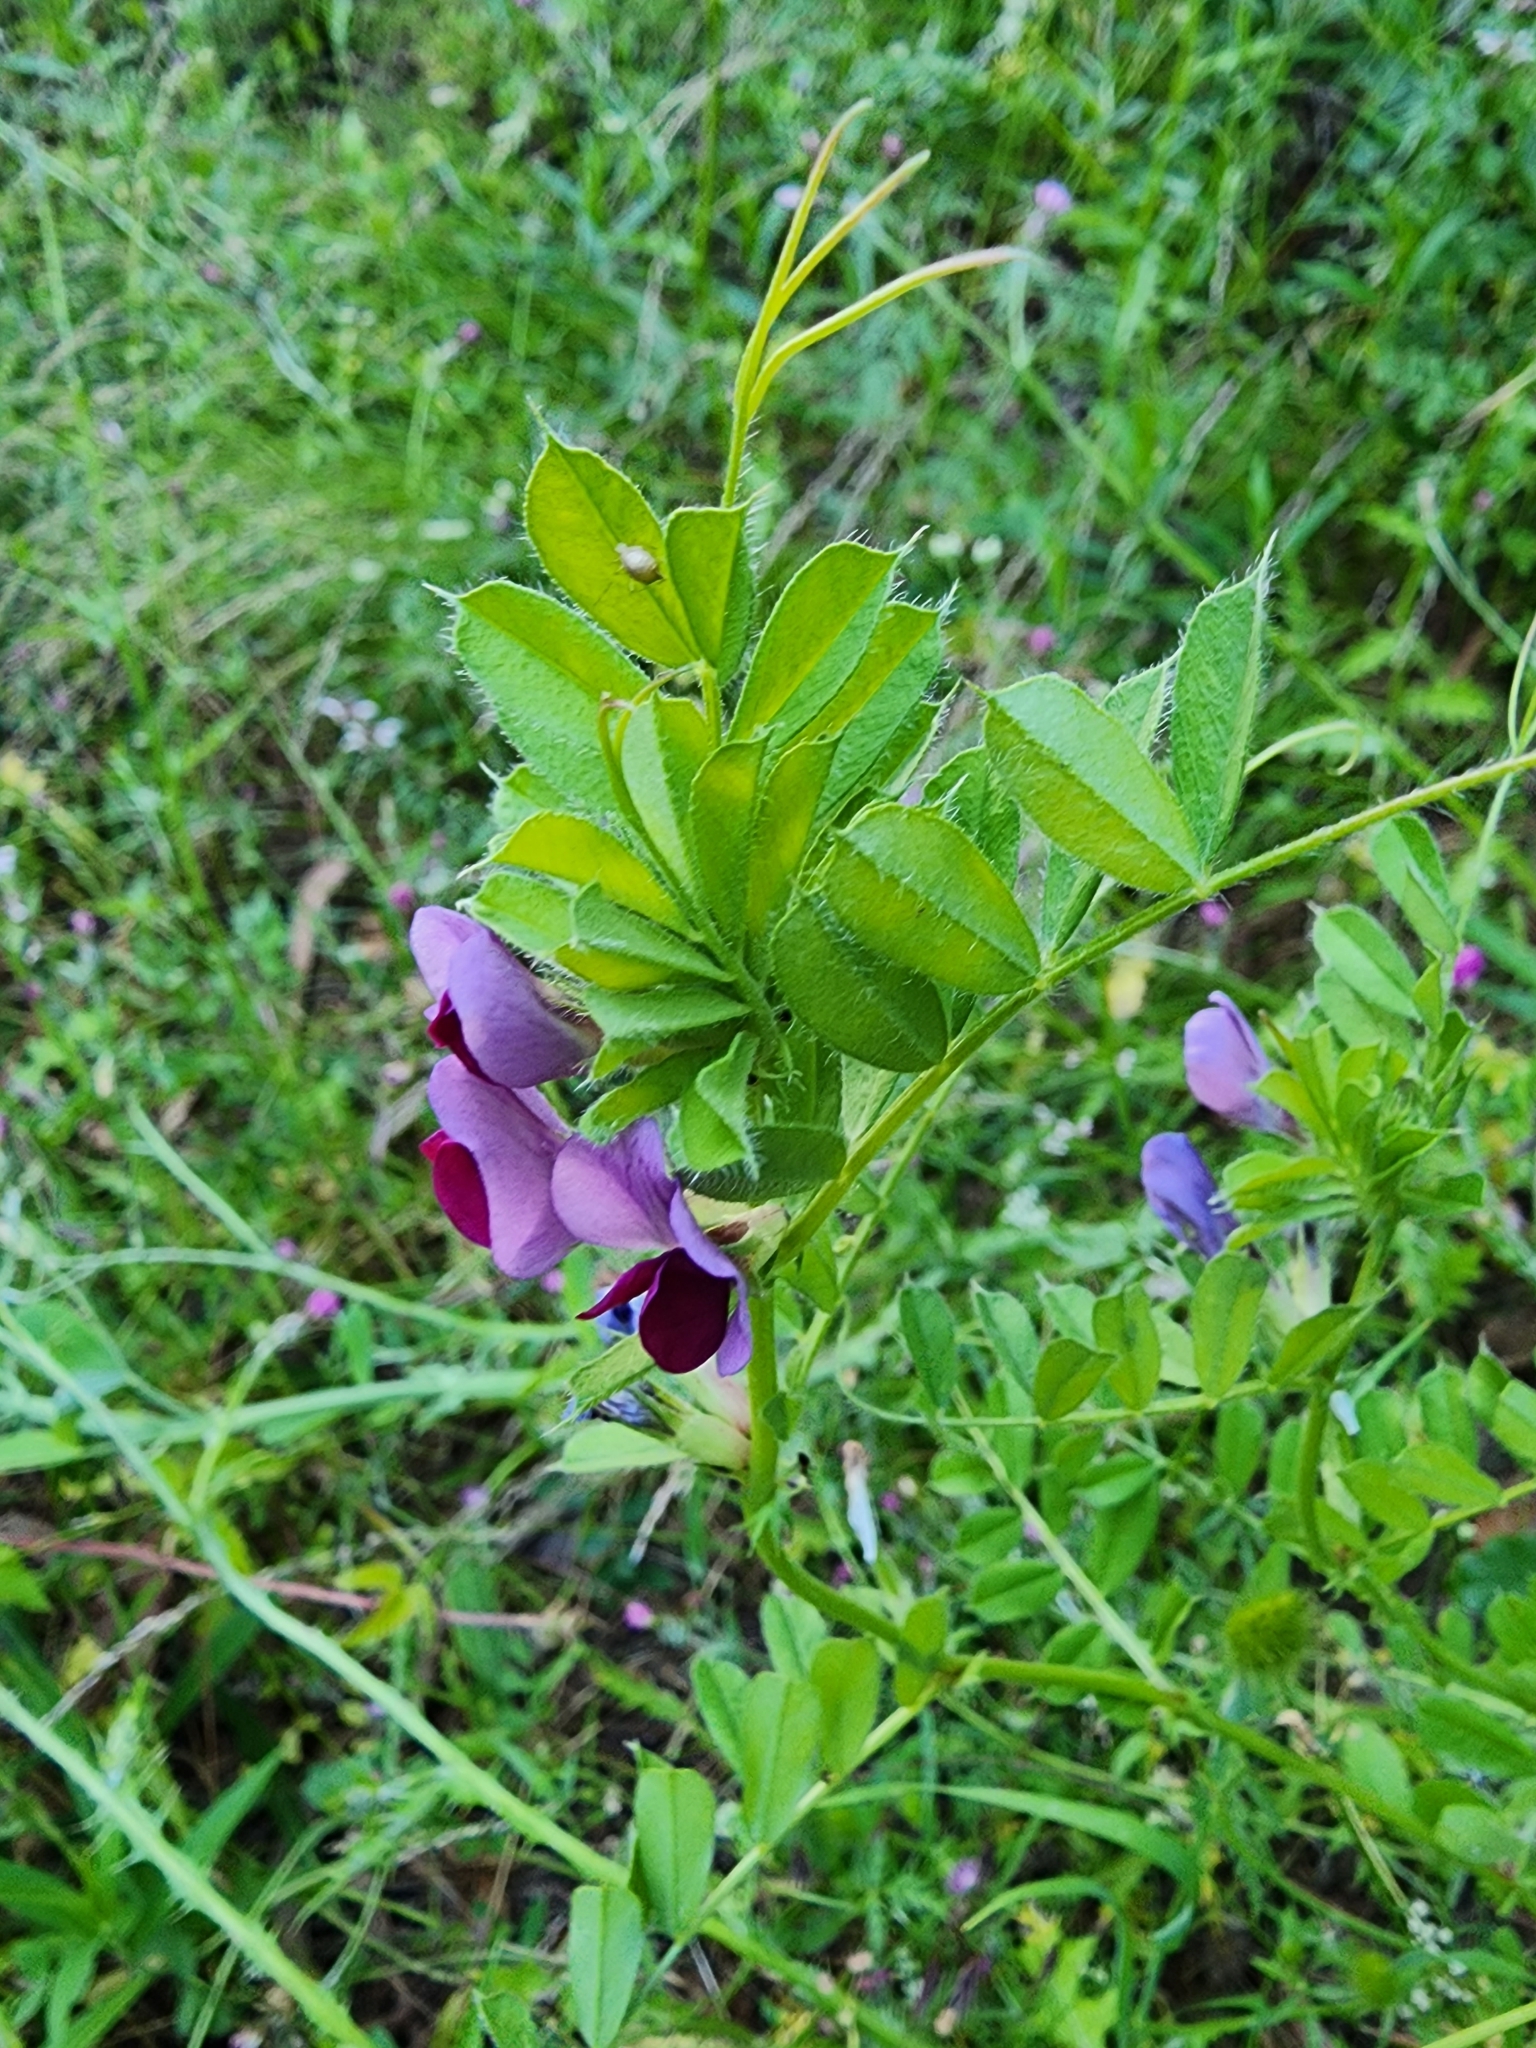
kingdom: Plantae
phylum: Tracheophyta
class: Magnoliopsida
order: Fabales
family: Fabaceae
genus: Vicia
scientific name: Vicia sativa
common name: Garden vetch
